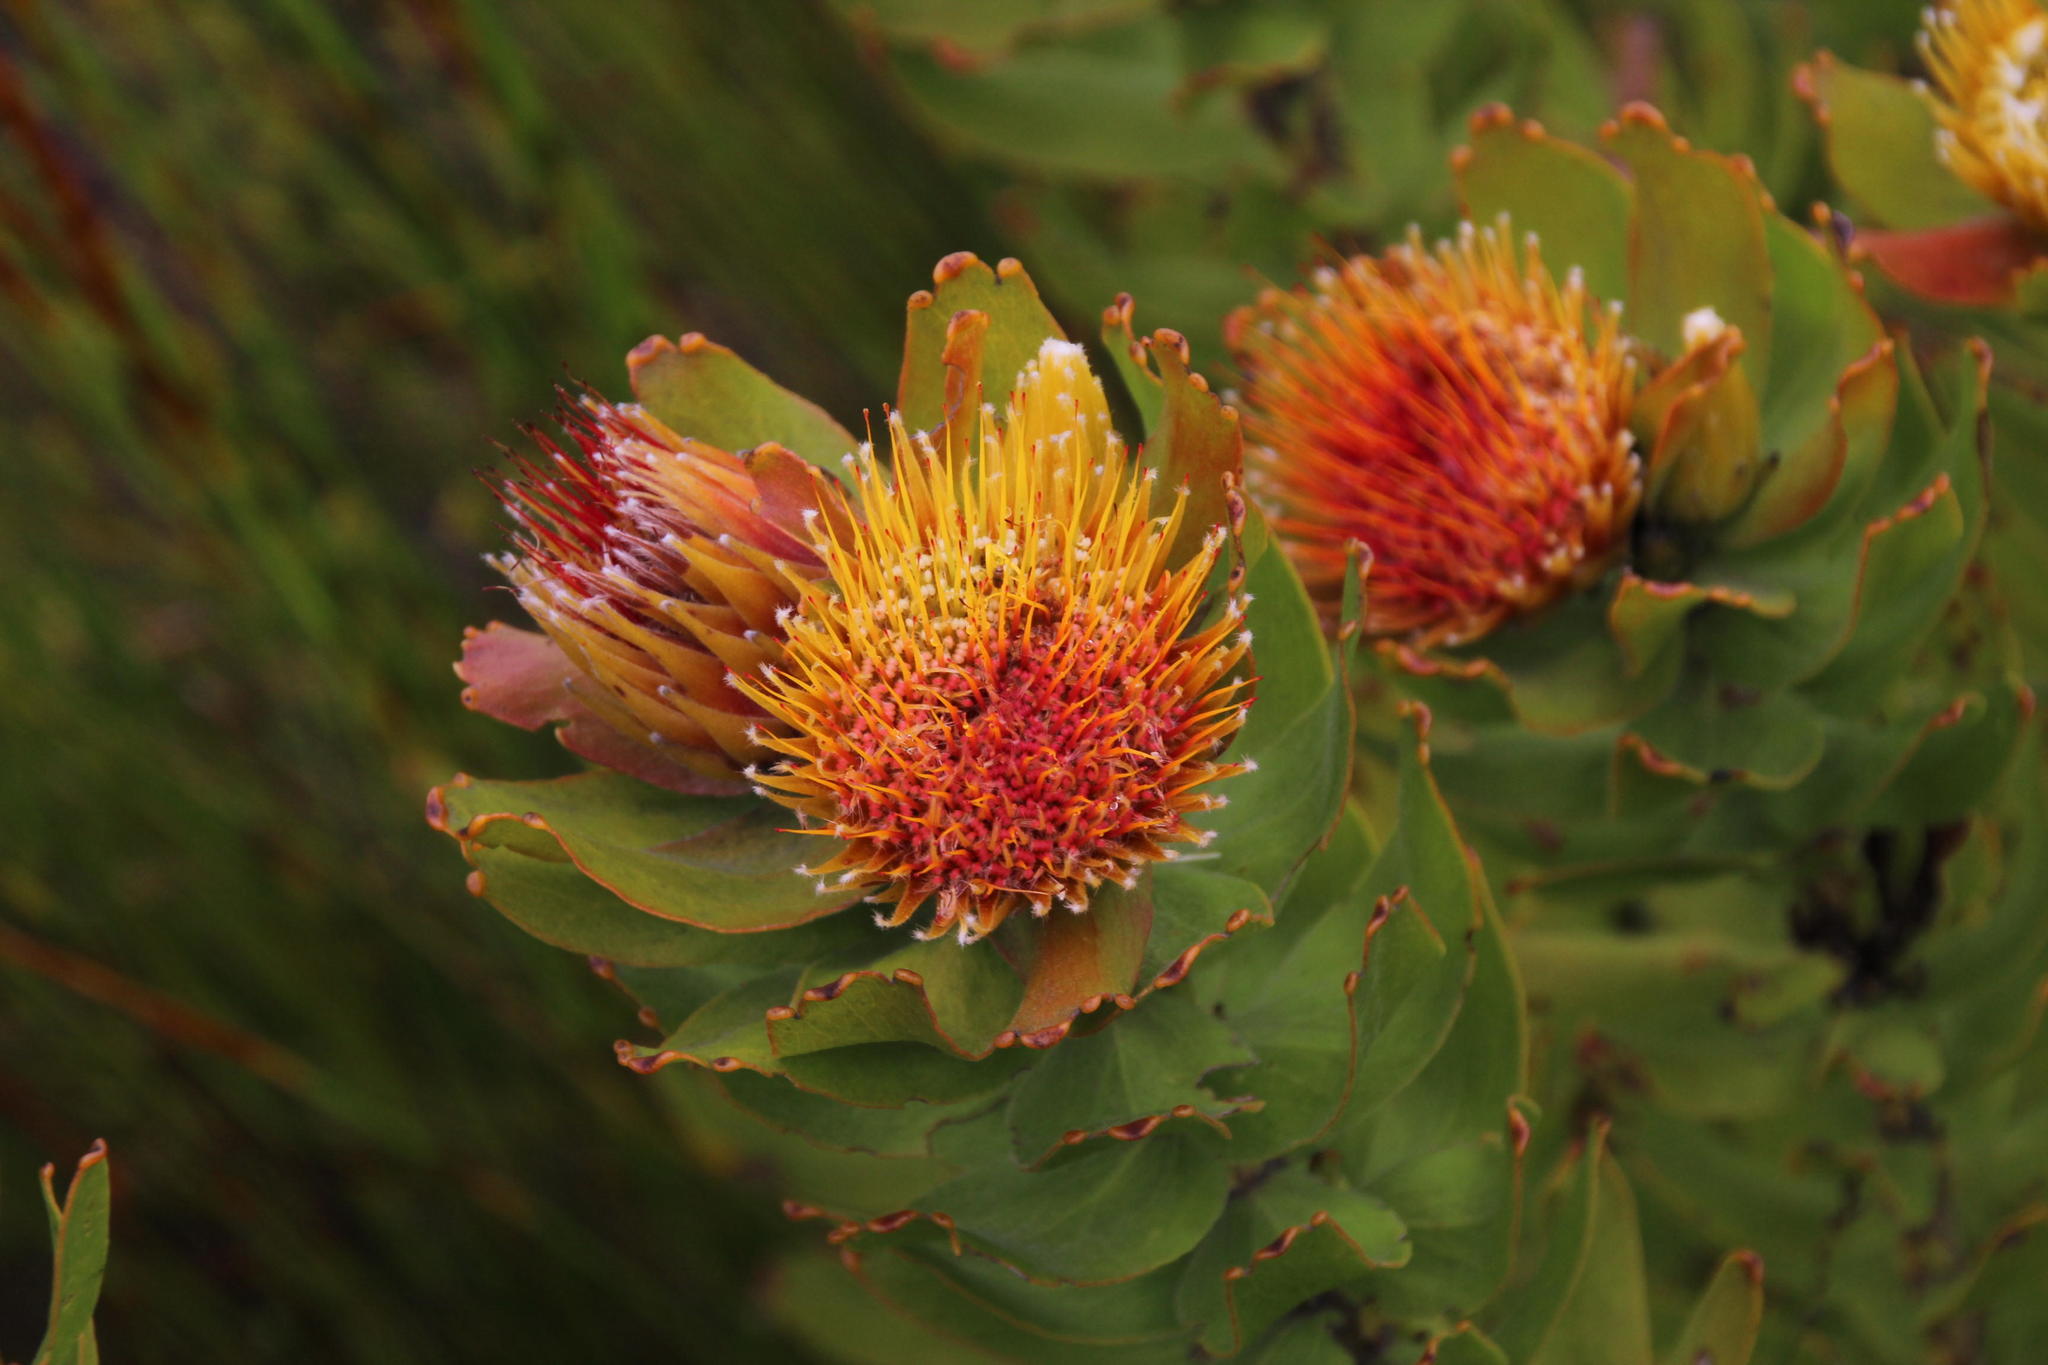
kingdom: Plantae
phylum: Tracheophyta
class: Magnoliopsida
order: Proteales
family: Proteaceae
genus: Leucospermum
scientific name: Leucospermum oleifolium
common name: Matches
